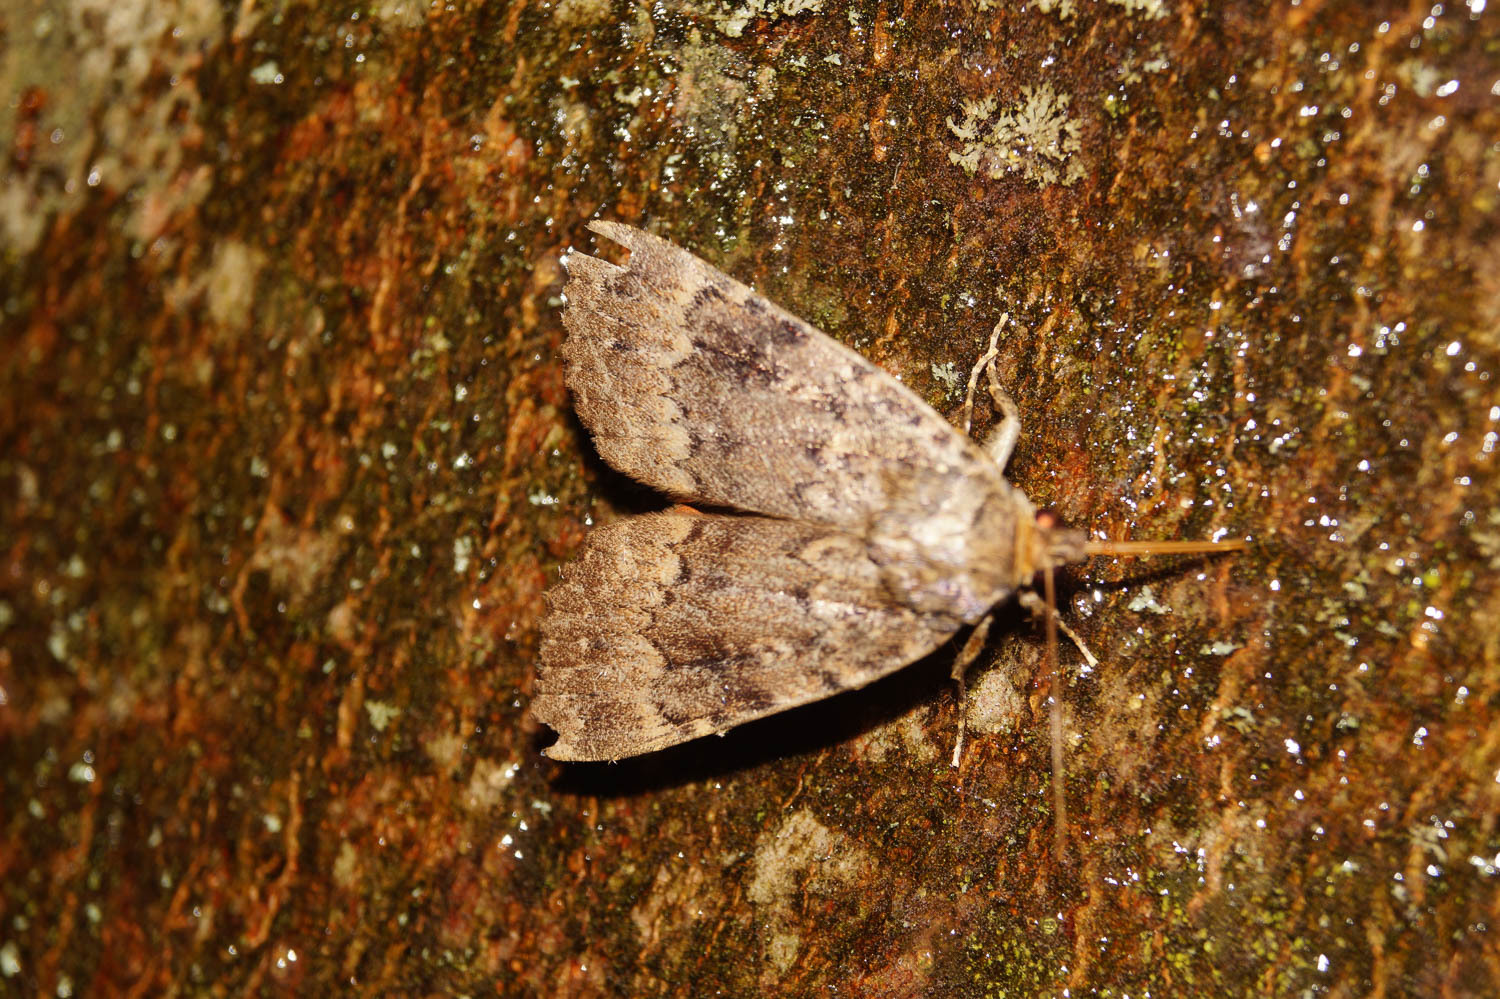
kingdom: Animalia
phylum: Arthropoda
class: Insecta
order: Lepidoptera
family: Noctuidae
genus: Amphipyra
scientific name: Amphipyra berbera
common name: Svensson's copper underwing
